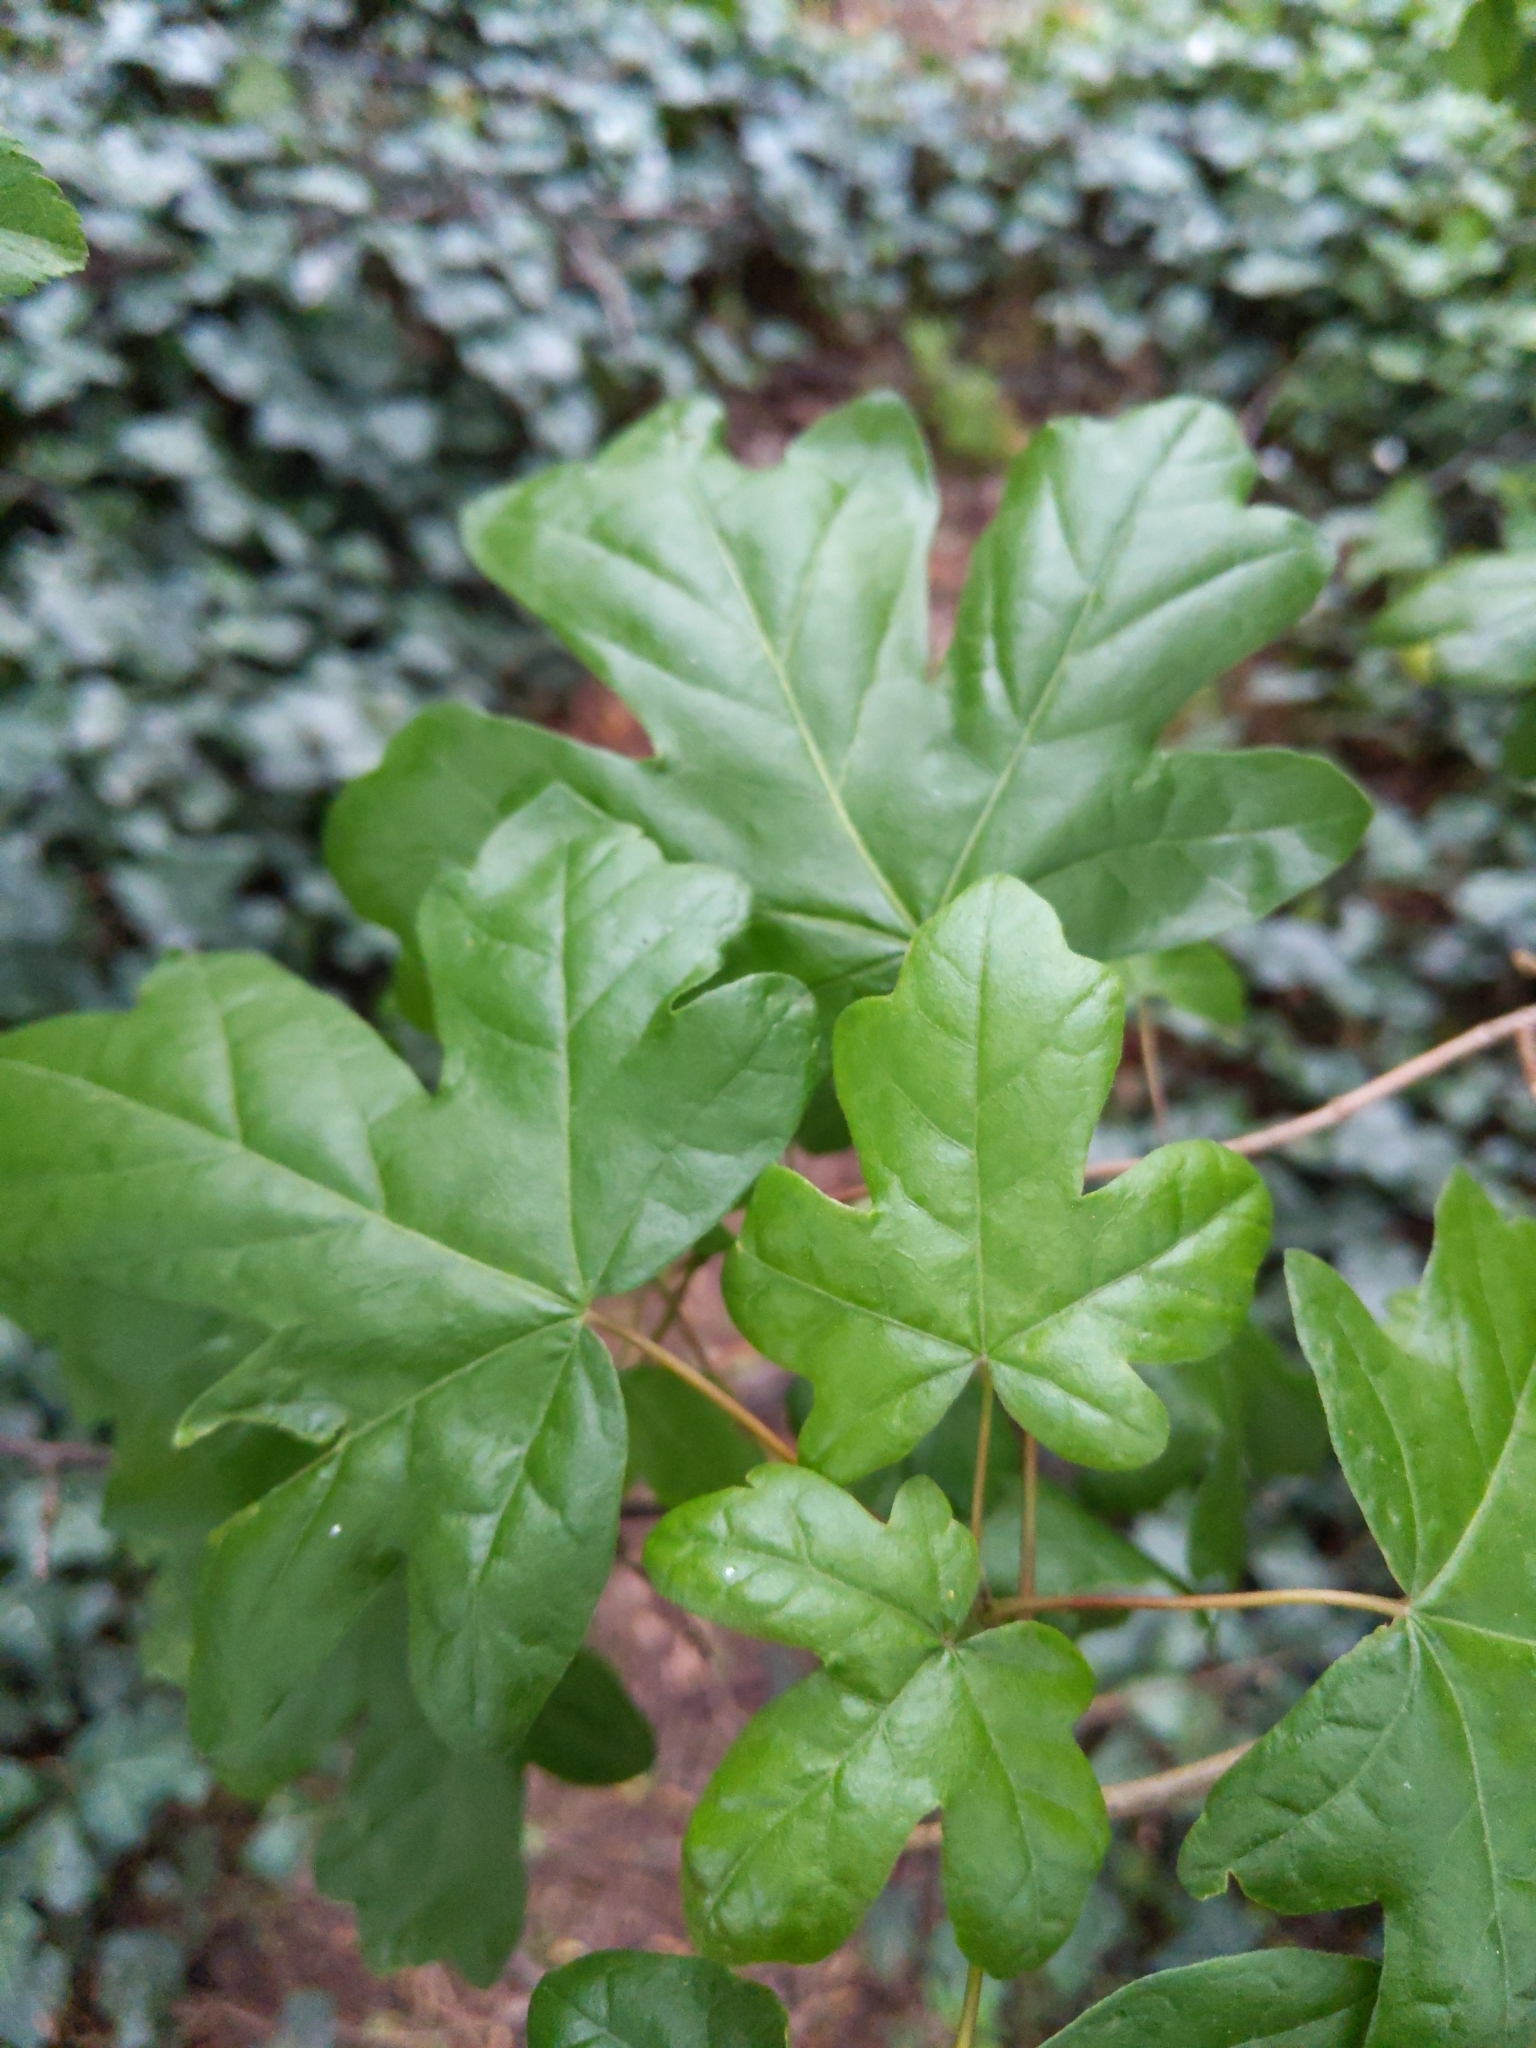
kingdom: Plantae
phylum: Tracheophyta
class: Magnoliopsida
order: Sapindales
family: Sapindaceae
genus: Acer
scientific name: Acer campestre
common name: Field maple
